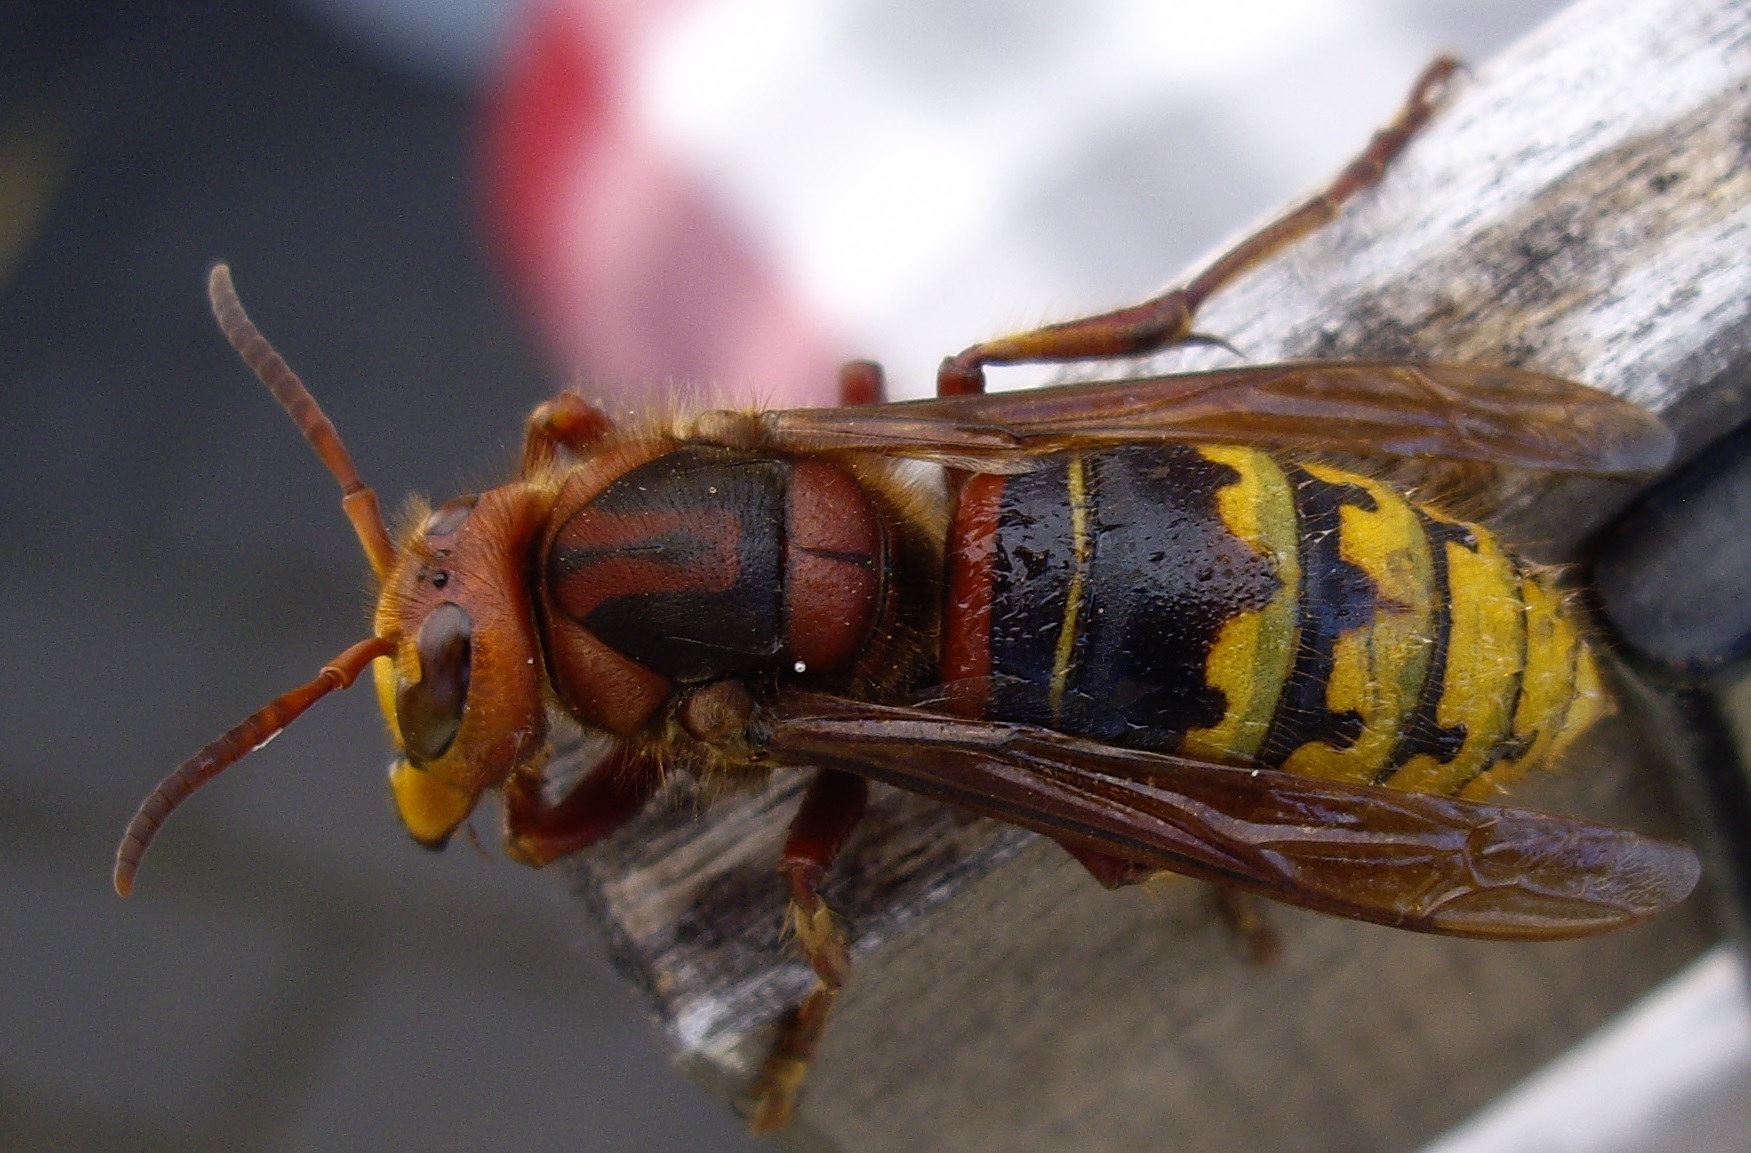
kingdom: Animalia
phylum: Arthropoda
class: Insecta
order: Hymenoptera
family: Vespidae
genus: Vespa
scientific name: Vespa crabro
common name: Hornet
